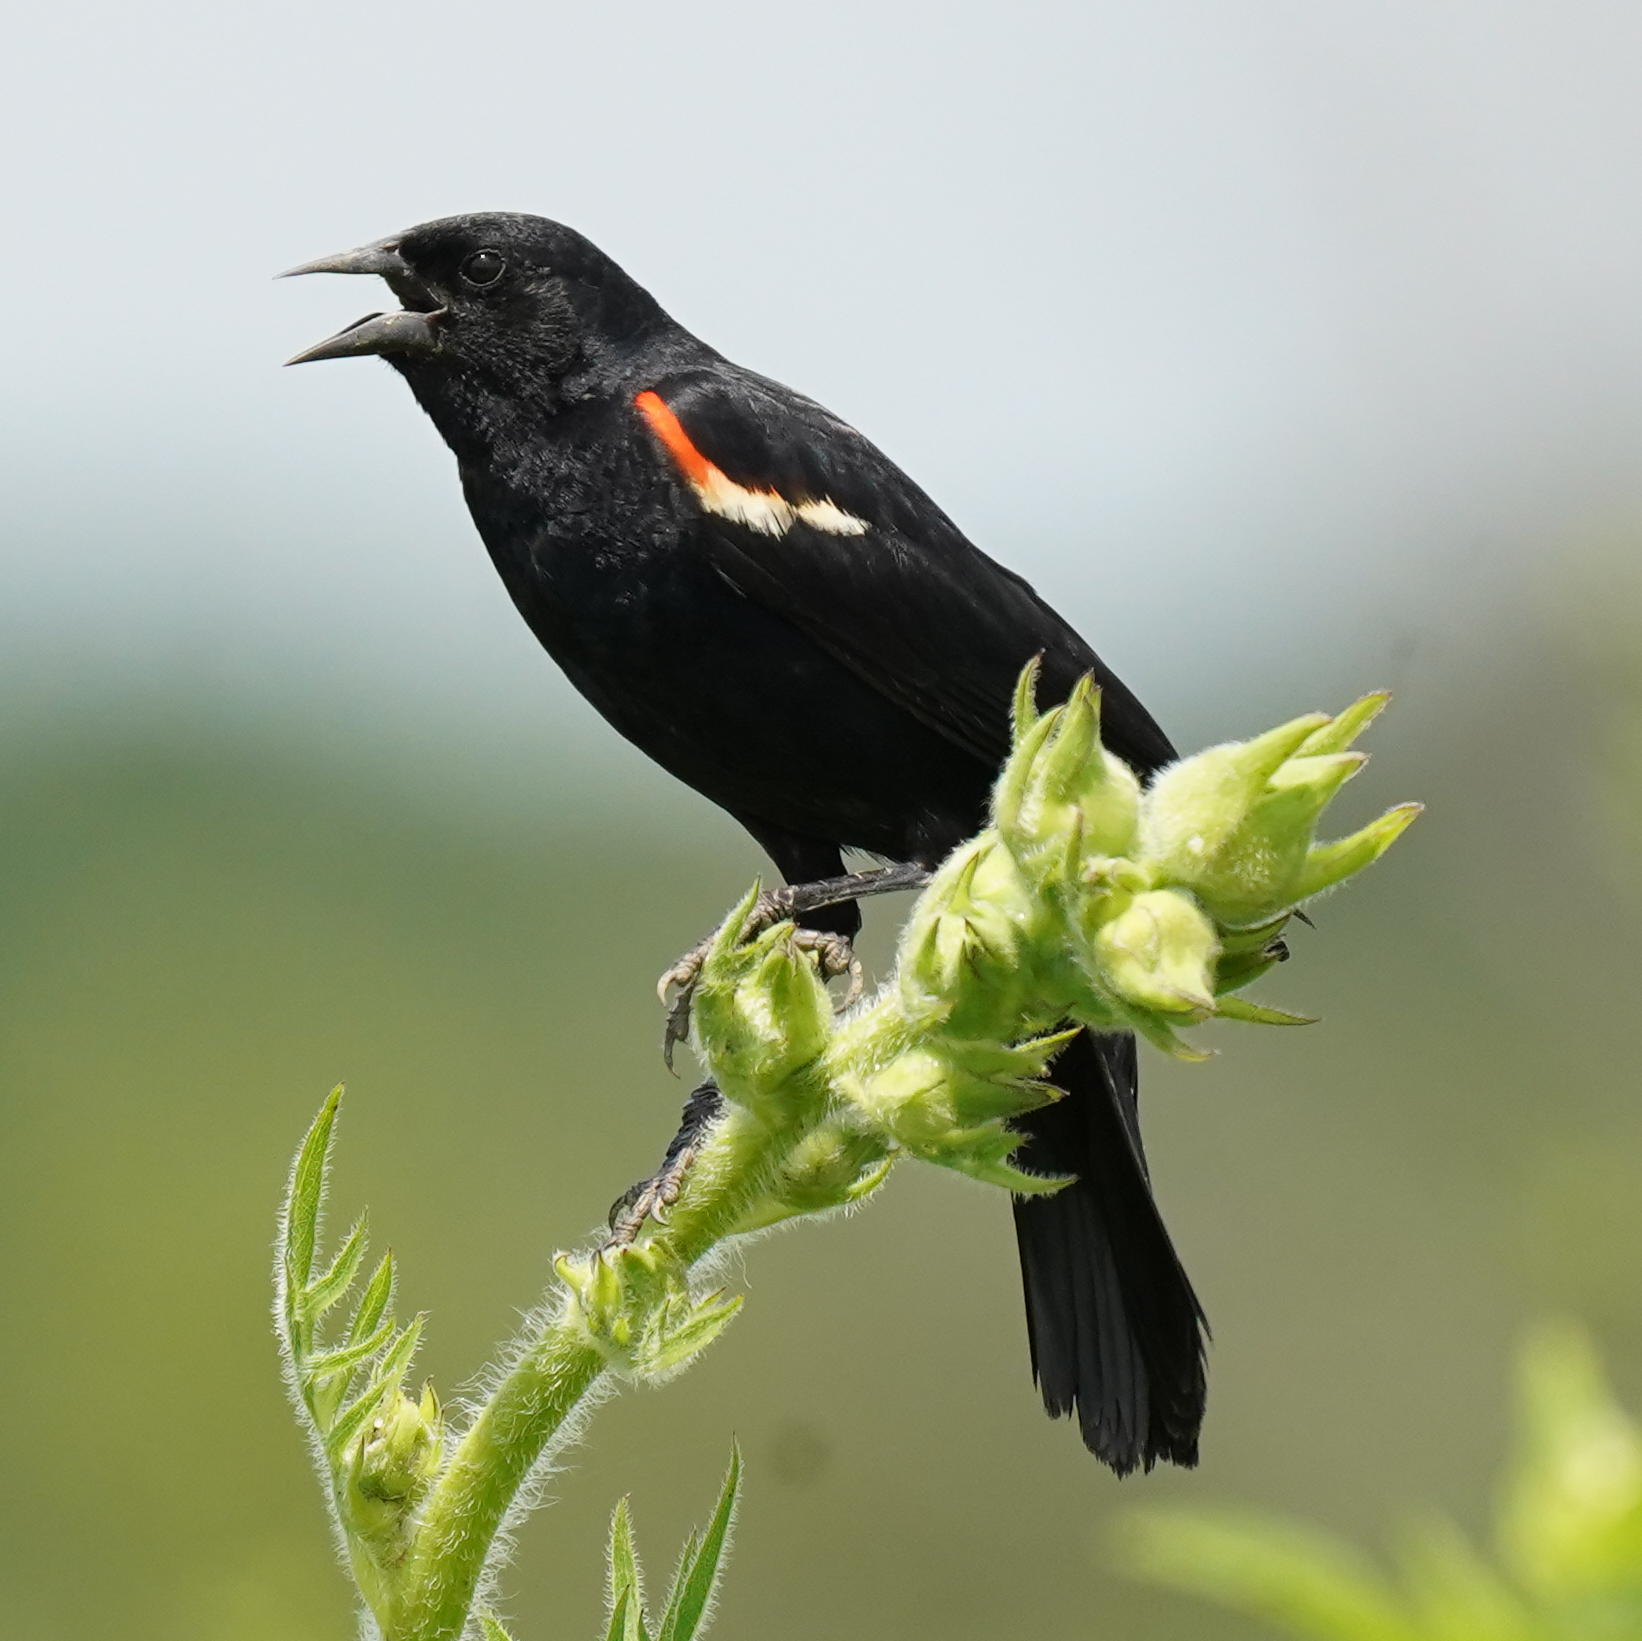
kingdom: Animalia
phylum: Chordata
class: Aves
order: Passeriformes
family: Icteridae
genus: Agelaius
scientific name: Agelaius phoeniceus
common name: Red-winged blackbird
